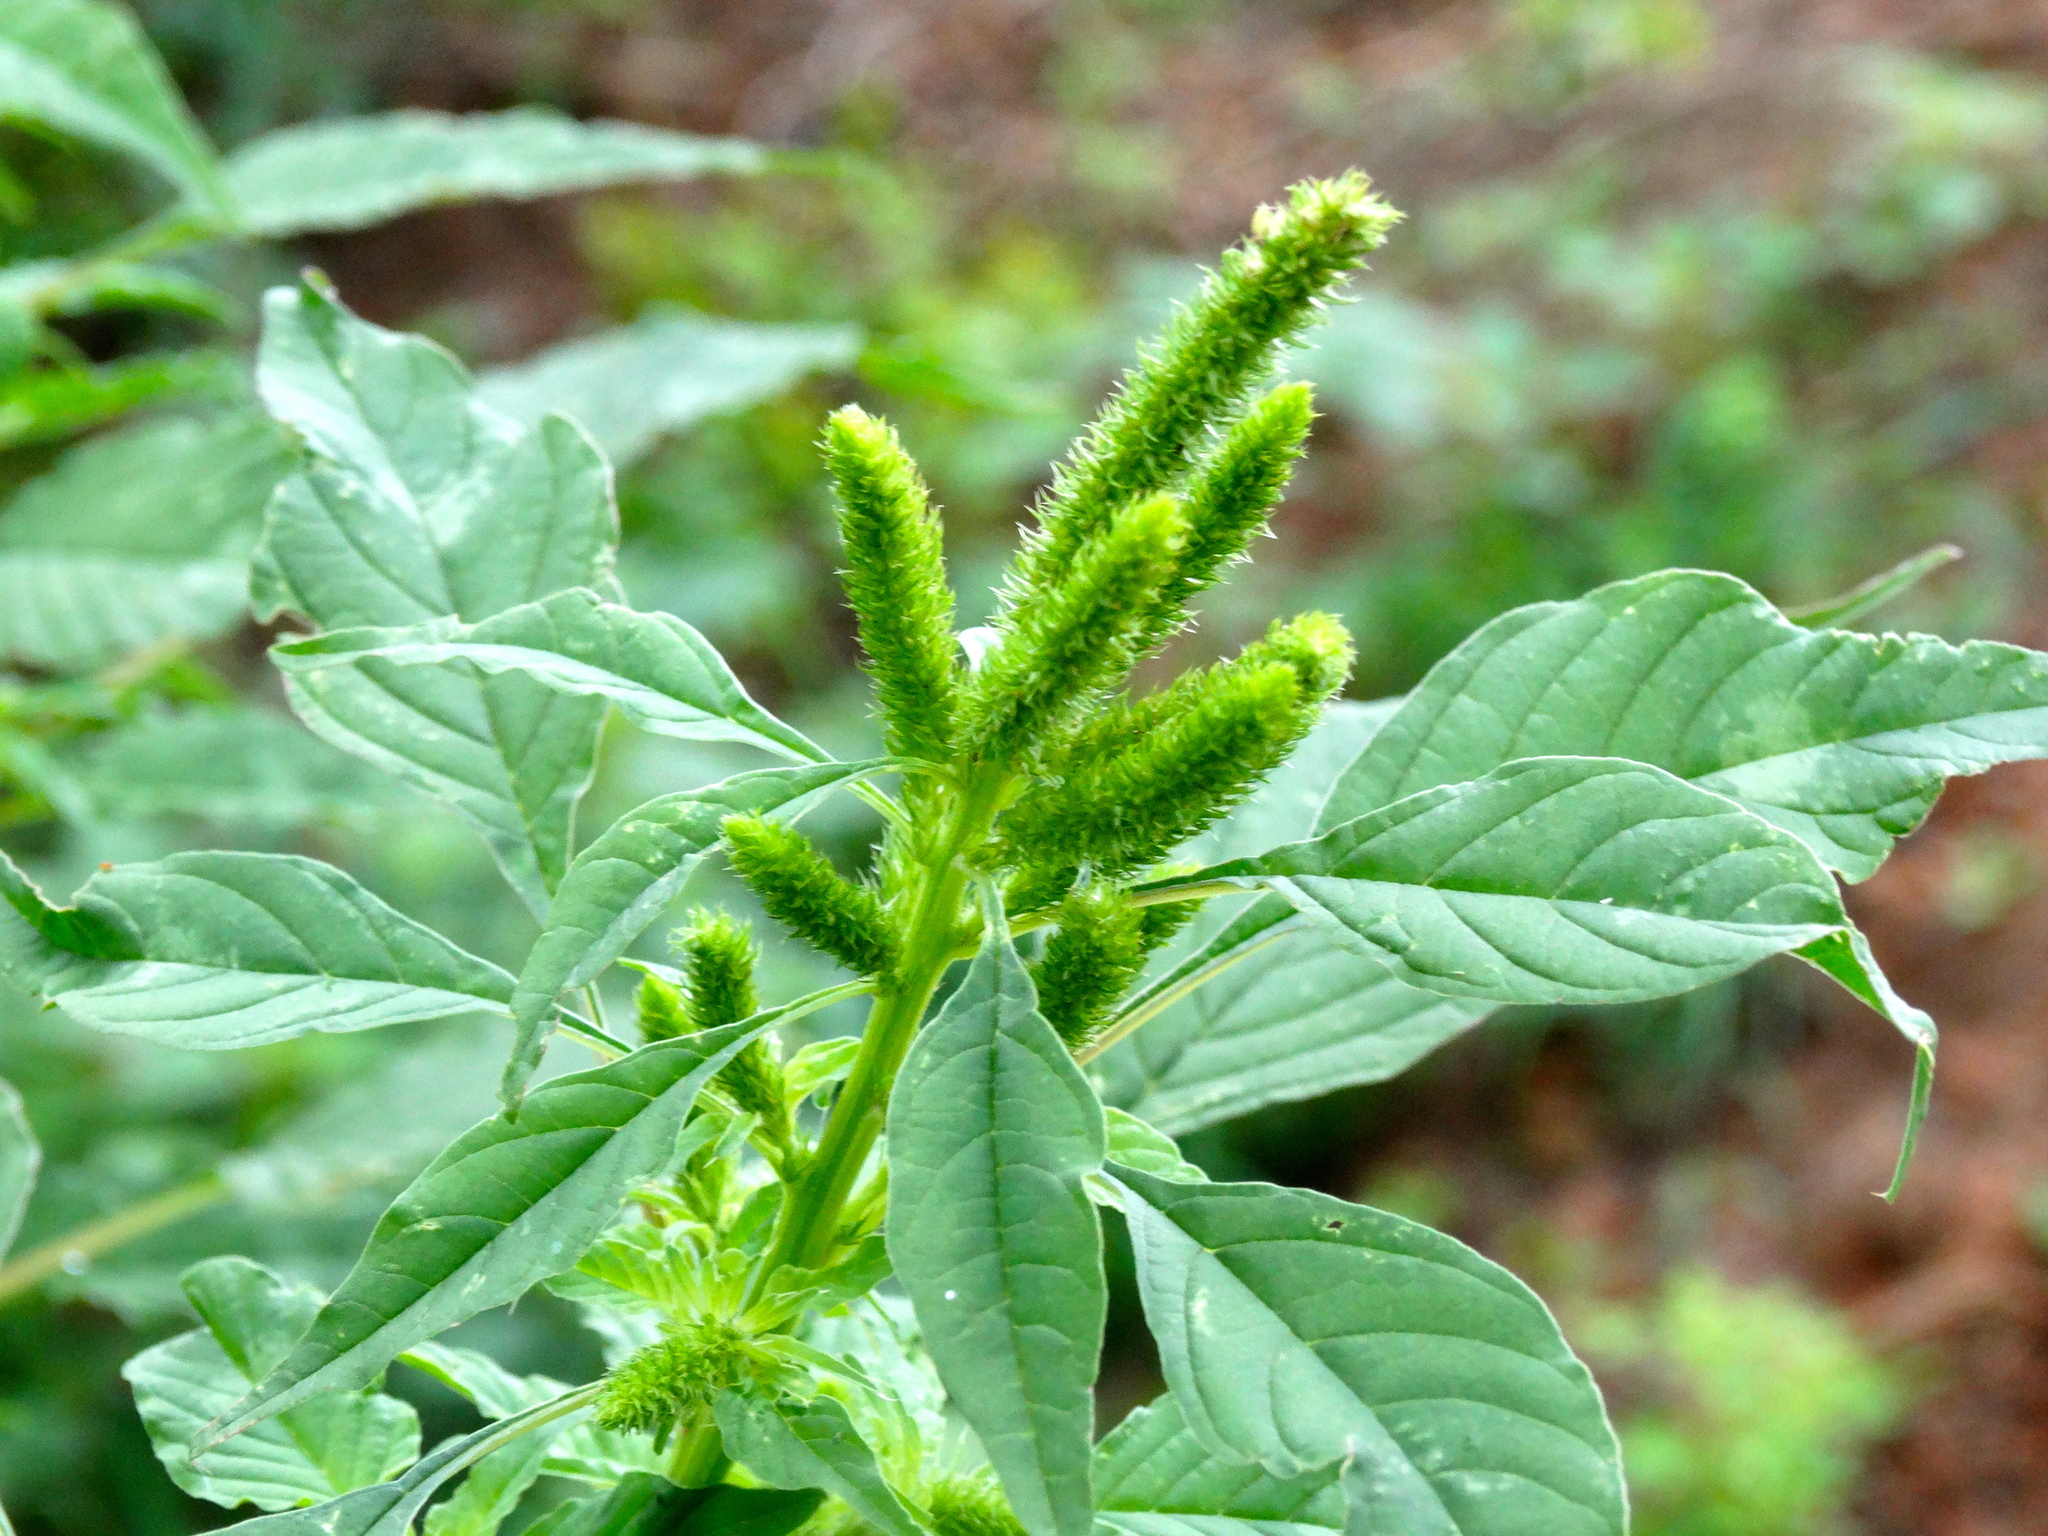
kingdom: Plantae
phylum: Tracheophyta
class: Magnoliopsida
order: Caryophyllales
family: Amaranthaceae
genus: Amaranthus
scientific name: Amaranthus
